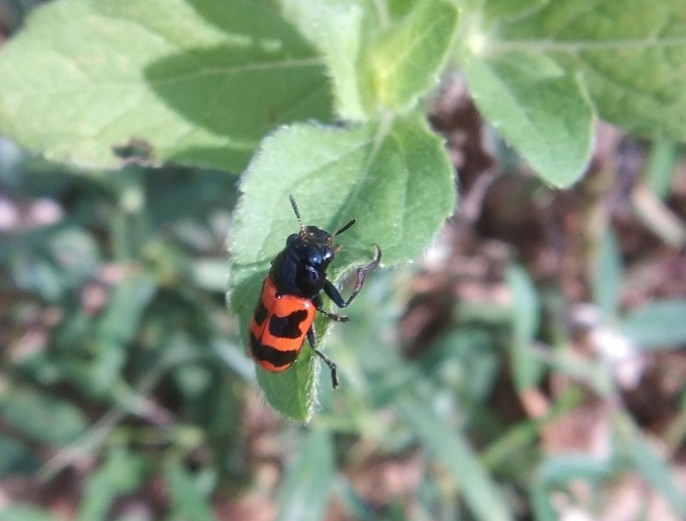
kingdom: Animalia
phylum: Arthropoda
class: Insecta
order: Coleoptera
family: Chrysomelidae
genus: Merilia
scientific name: Merilia
